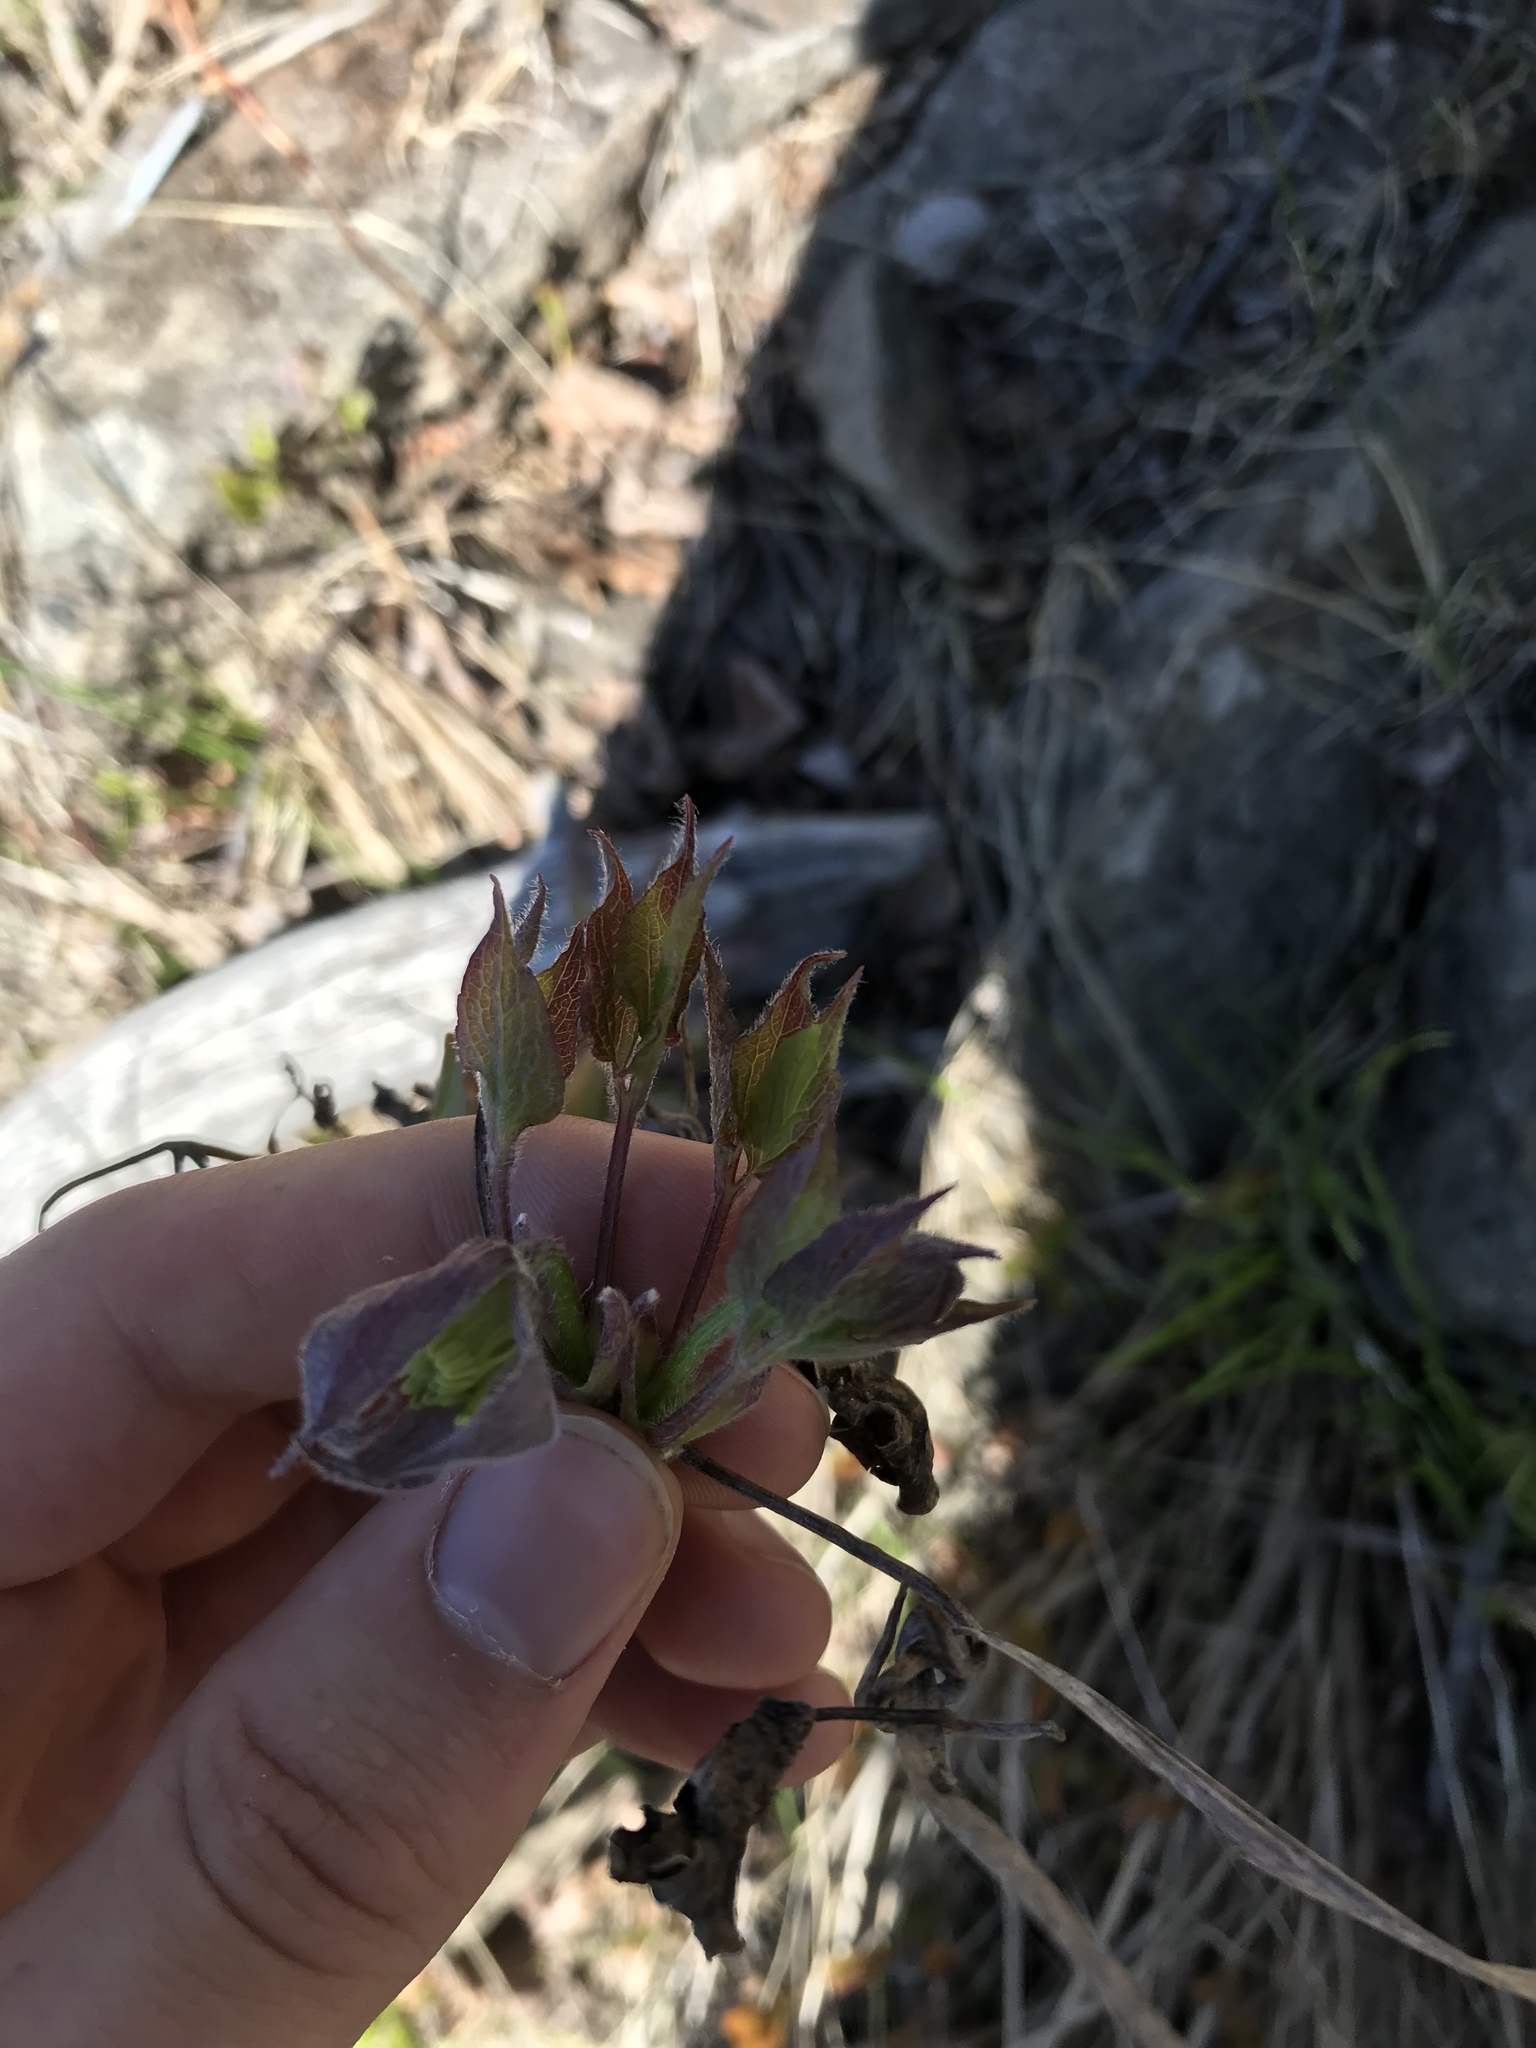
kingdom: Plantae
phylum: Tracheophyta
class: Magnoliopsida
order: Ranunculales
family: Ranunculaceae
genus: Clematis
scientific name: Clematis occidentalis
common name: Purple clematis
